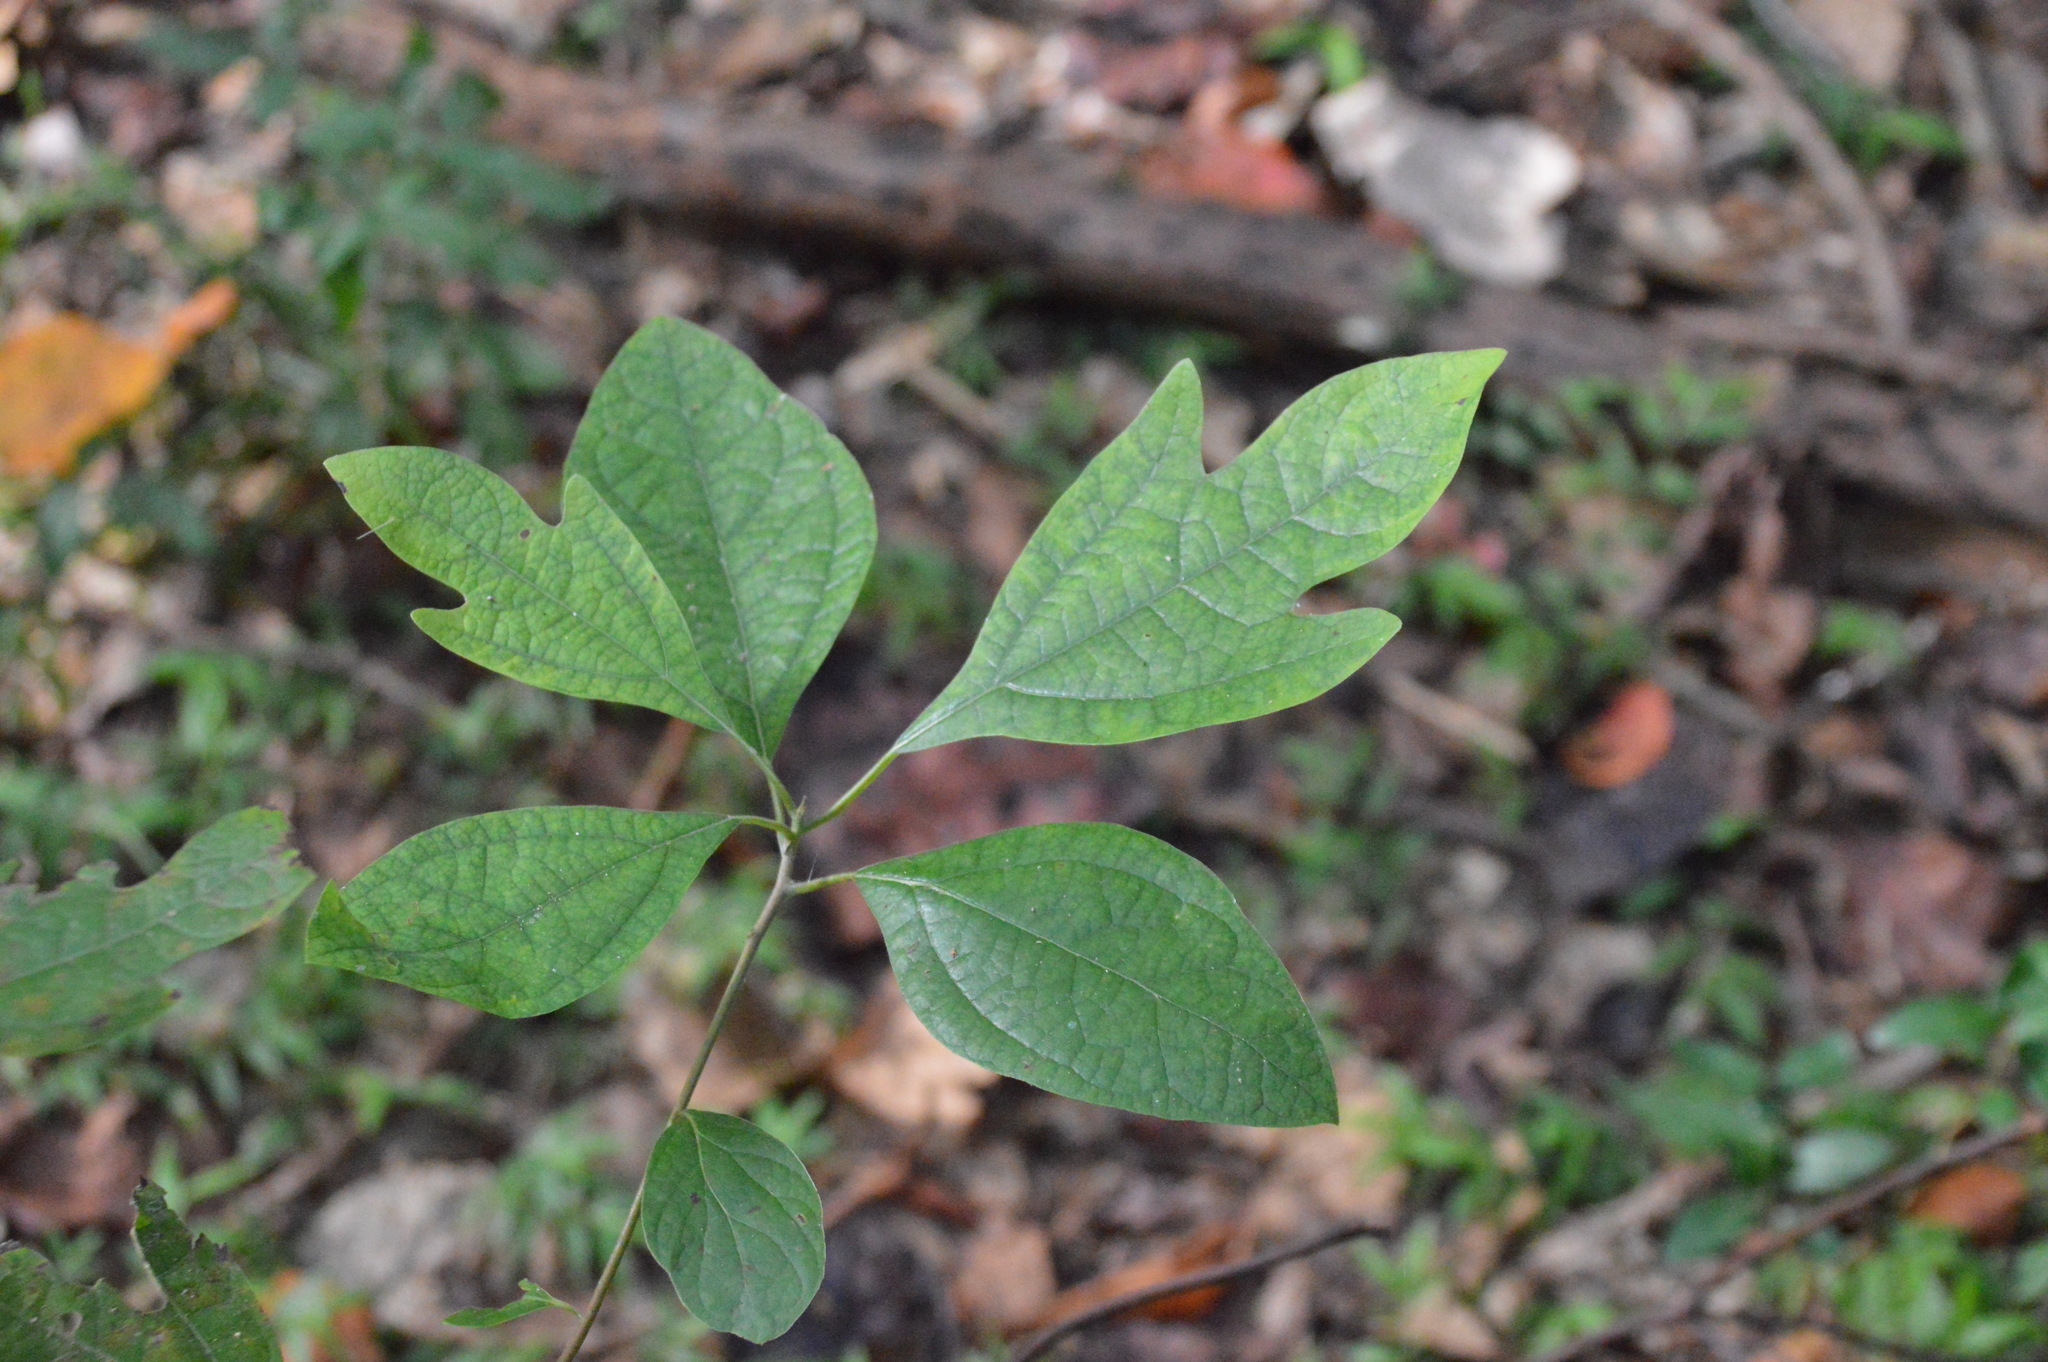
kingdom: Plantae
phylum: Tracheophyta
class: Magnoliopsida
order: Laurales
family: Lauraceae
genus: Sassafras
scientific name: Sassafras albidum
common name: Sassafras
